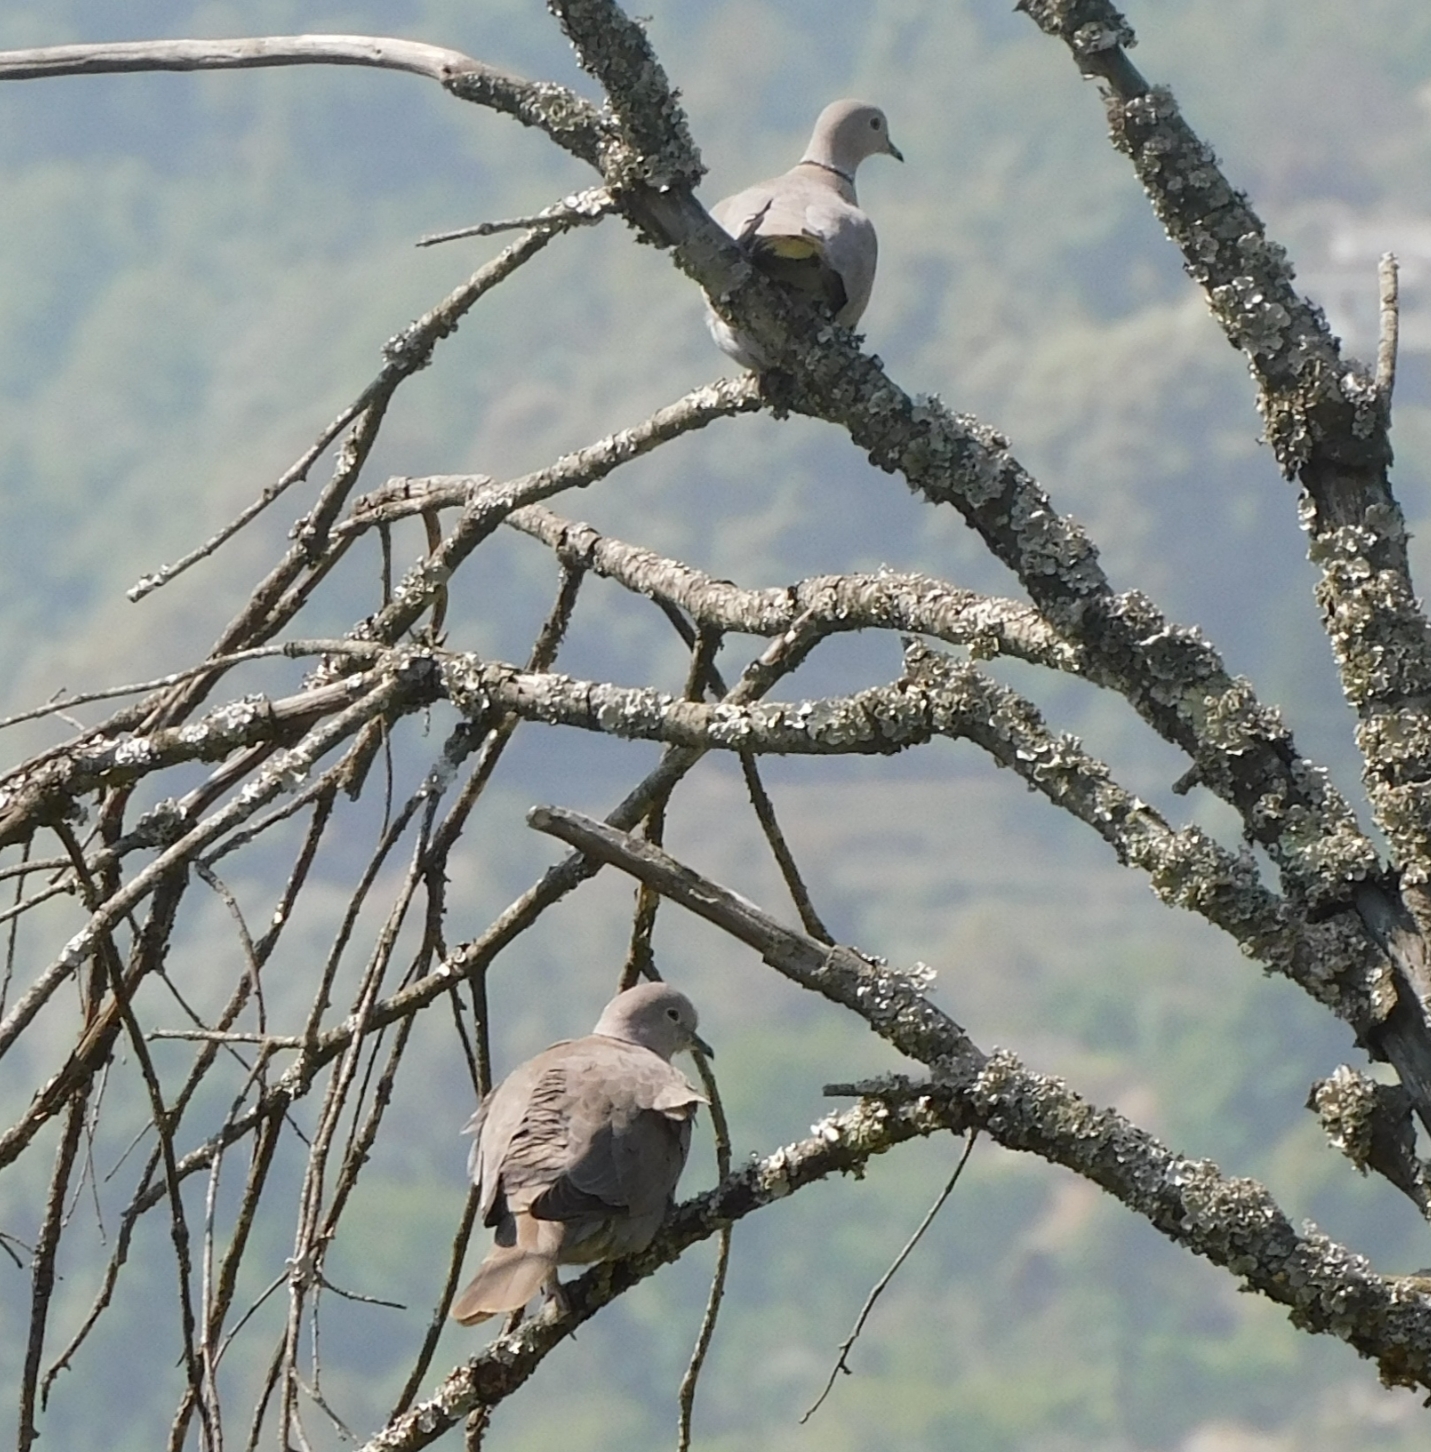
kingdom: Animalia
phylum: Chordata
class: Aves
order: Columbiformes
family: Columbidae
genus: Streptopelia
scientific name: Streptopelia decaocto
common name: Eurasian collared dove
